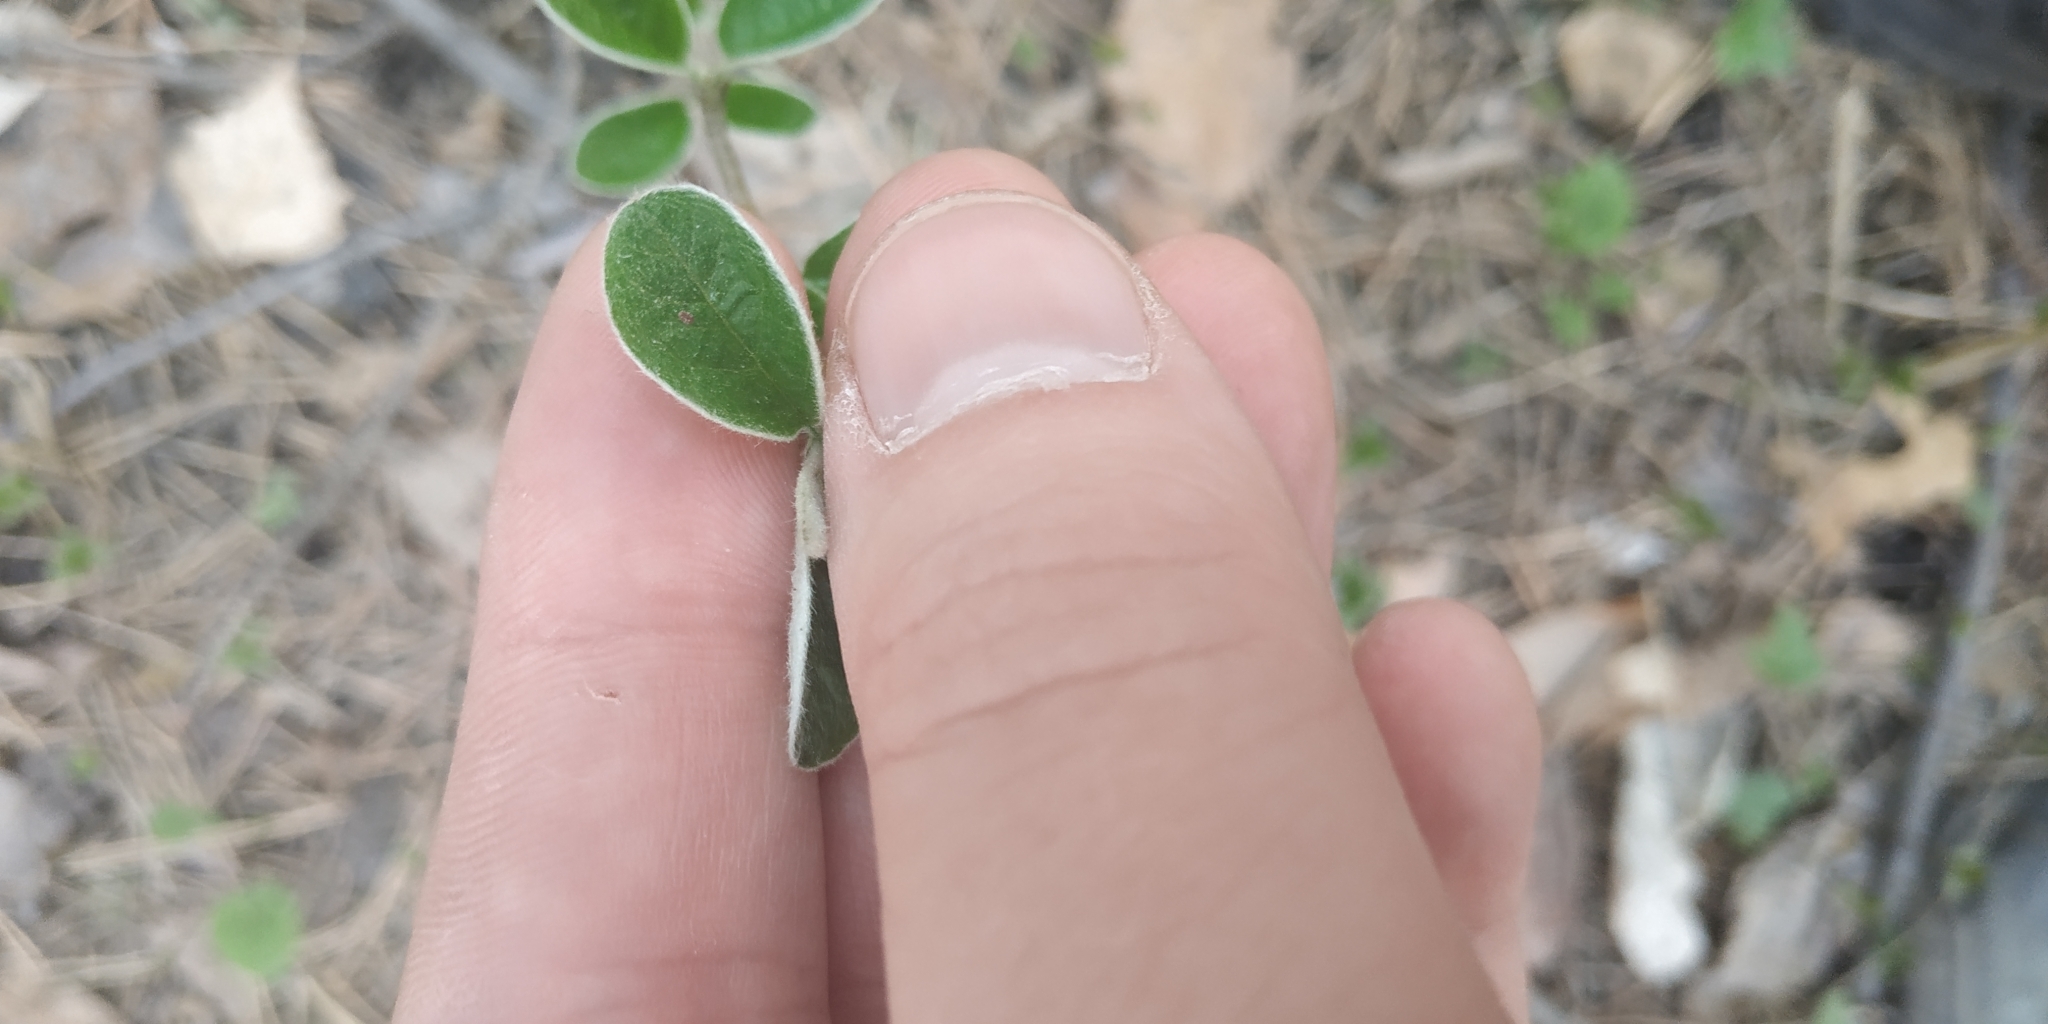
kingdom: Plantae
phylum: Tracheophyta
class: Magnoliopsida
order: Rosales
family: Rosaceae
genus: Cotoneaster
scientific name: Cotoneaster melanocarpus
